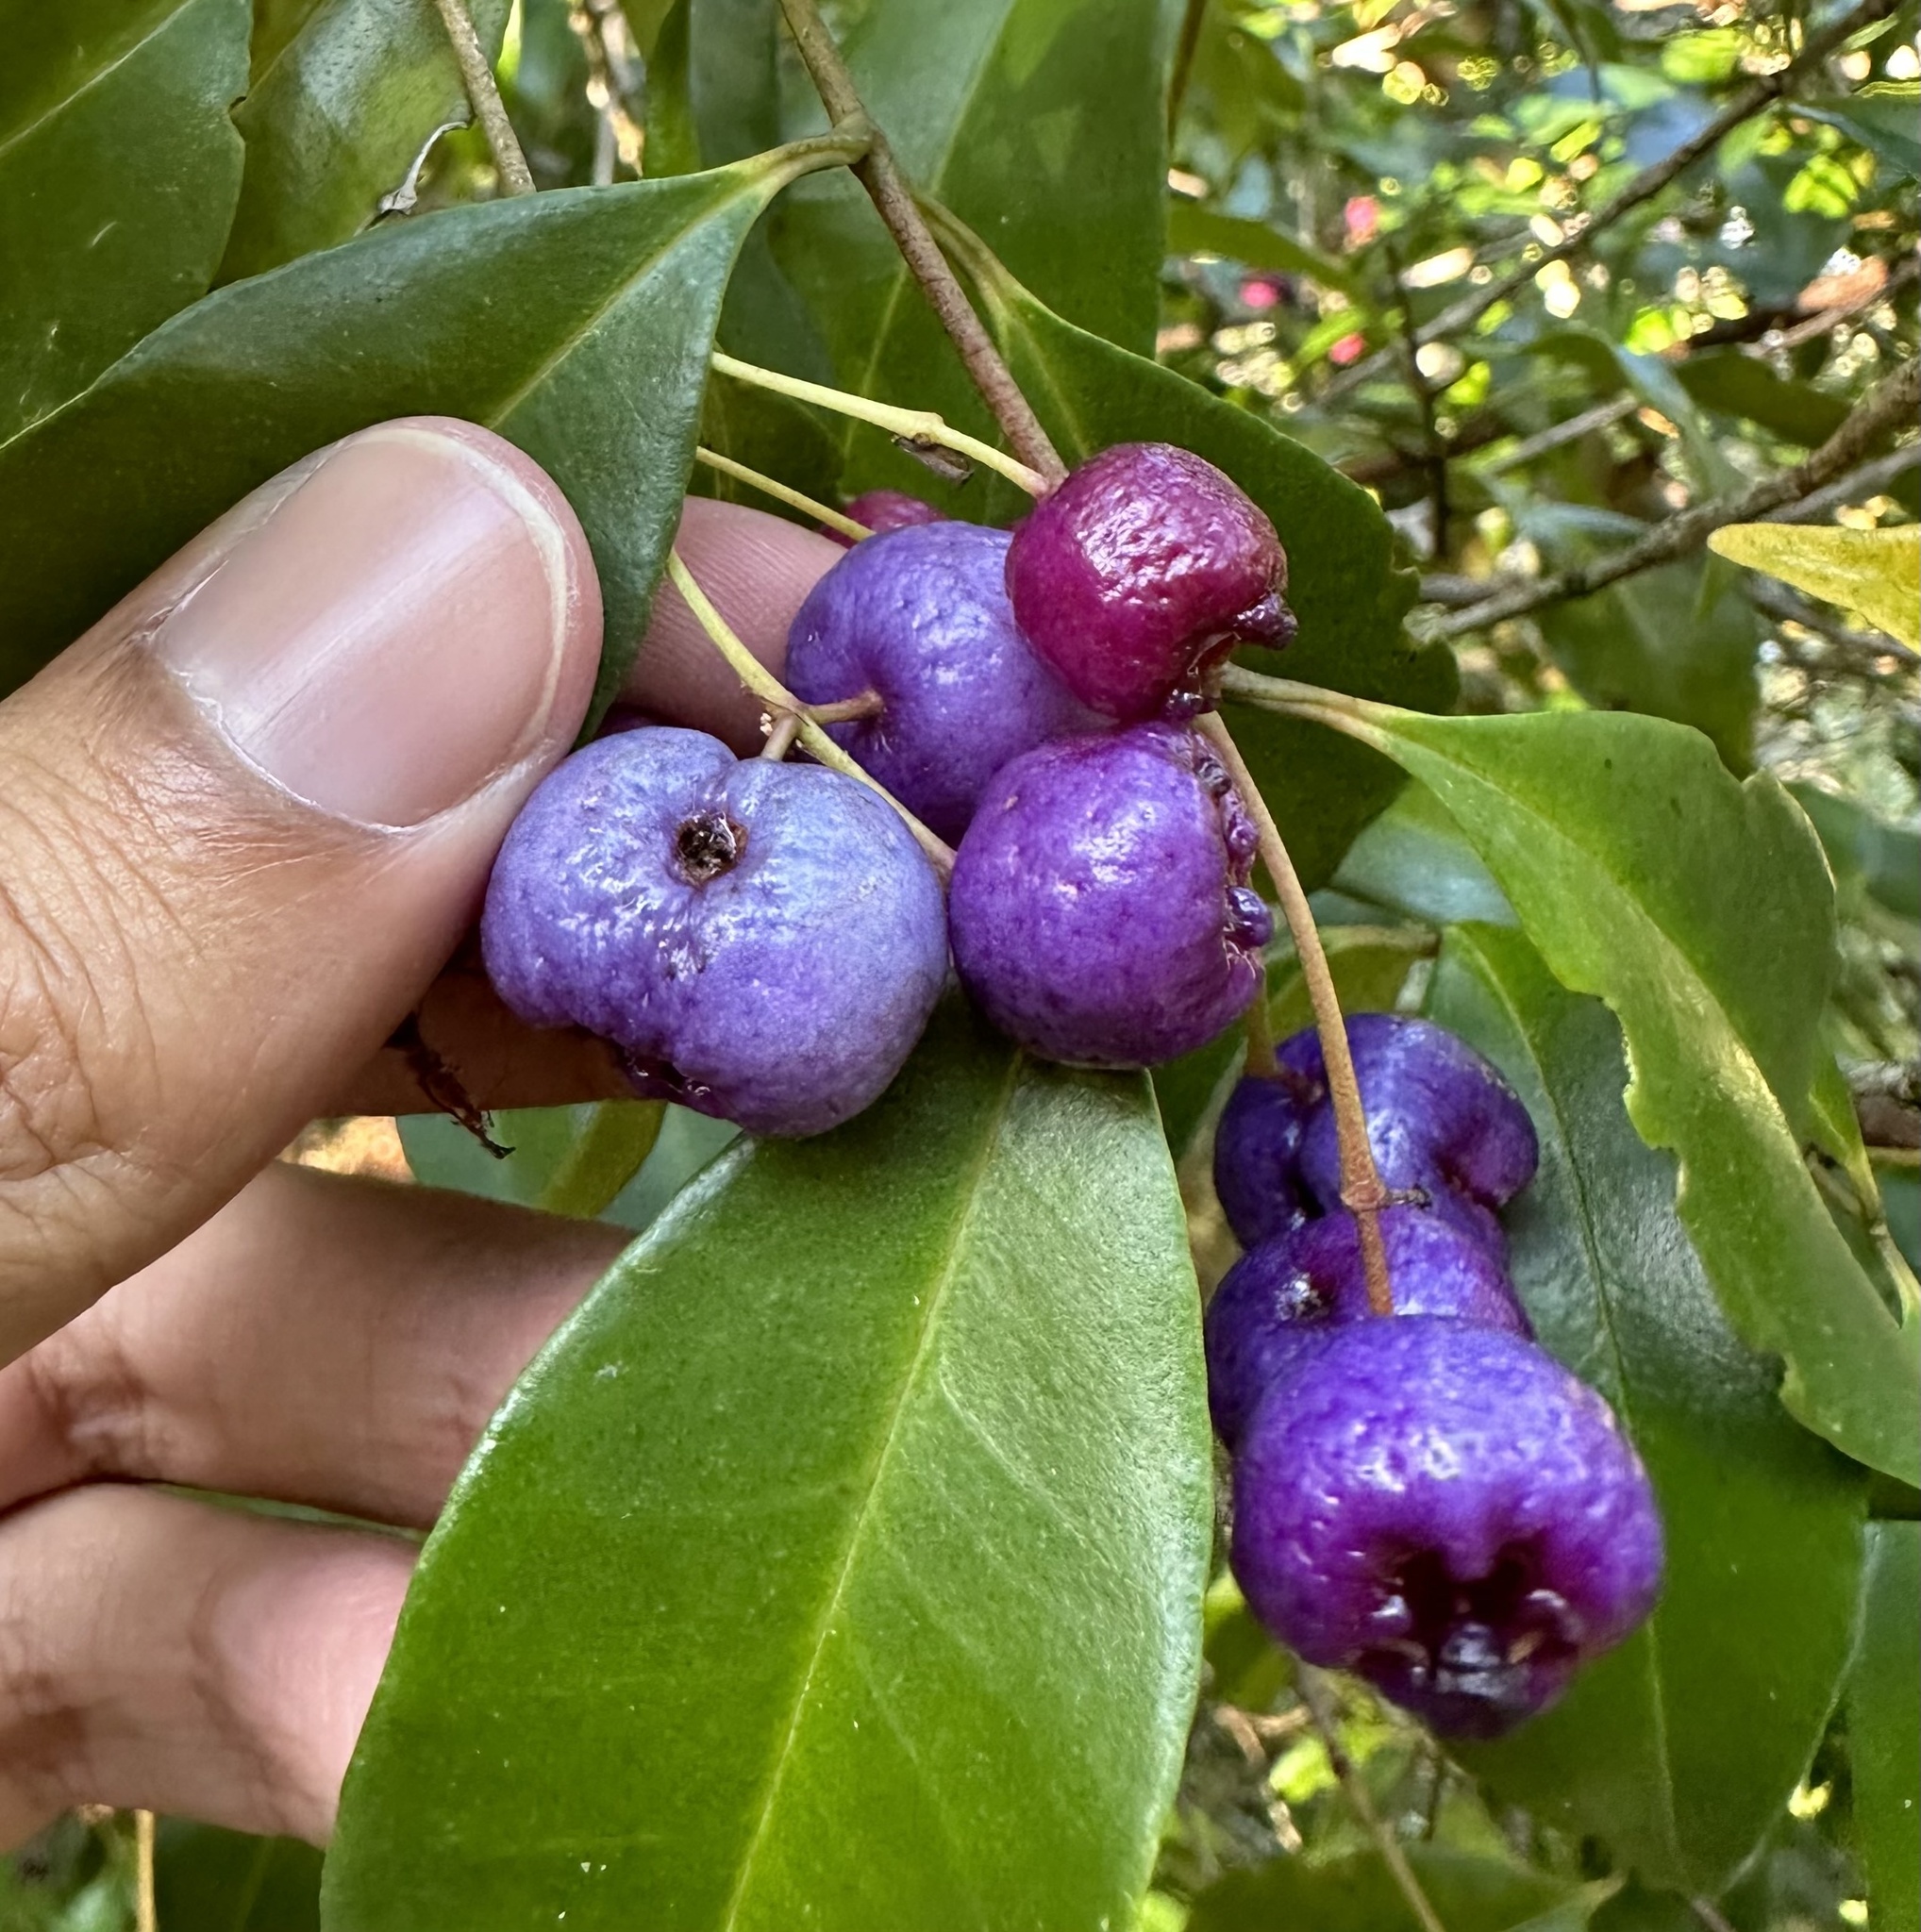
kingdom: Plantae
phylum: Tracheophyta
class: Magnoliopsida
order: Myrtales
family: Myrtaceae
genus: Syzygium
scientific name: Syzygium oleosum
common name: Oily satin-ash
